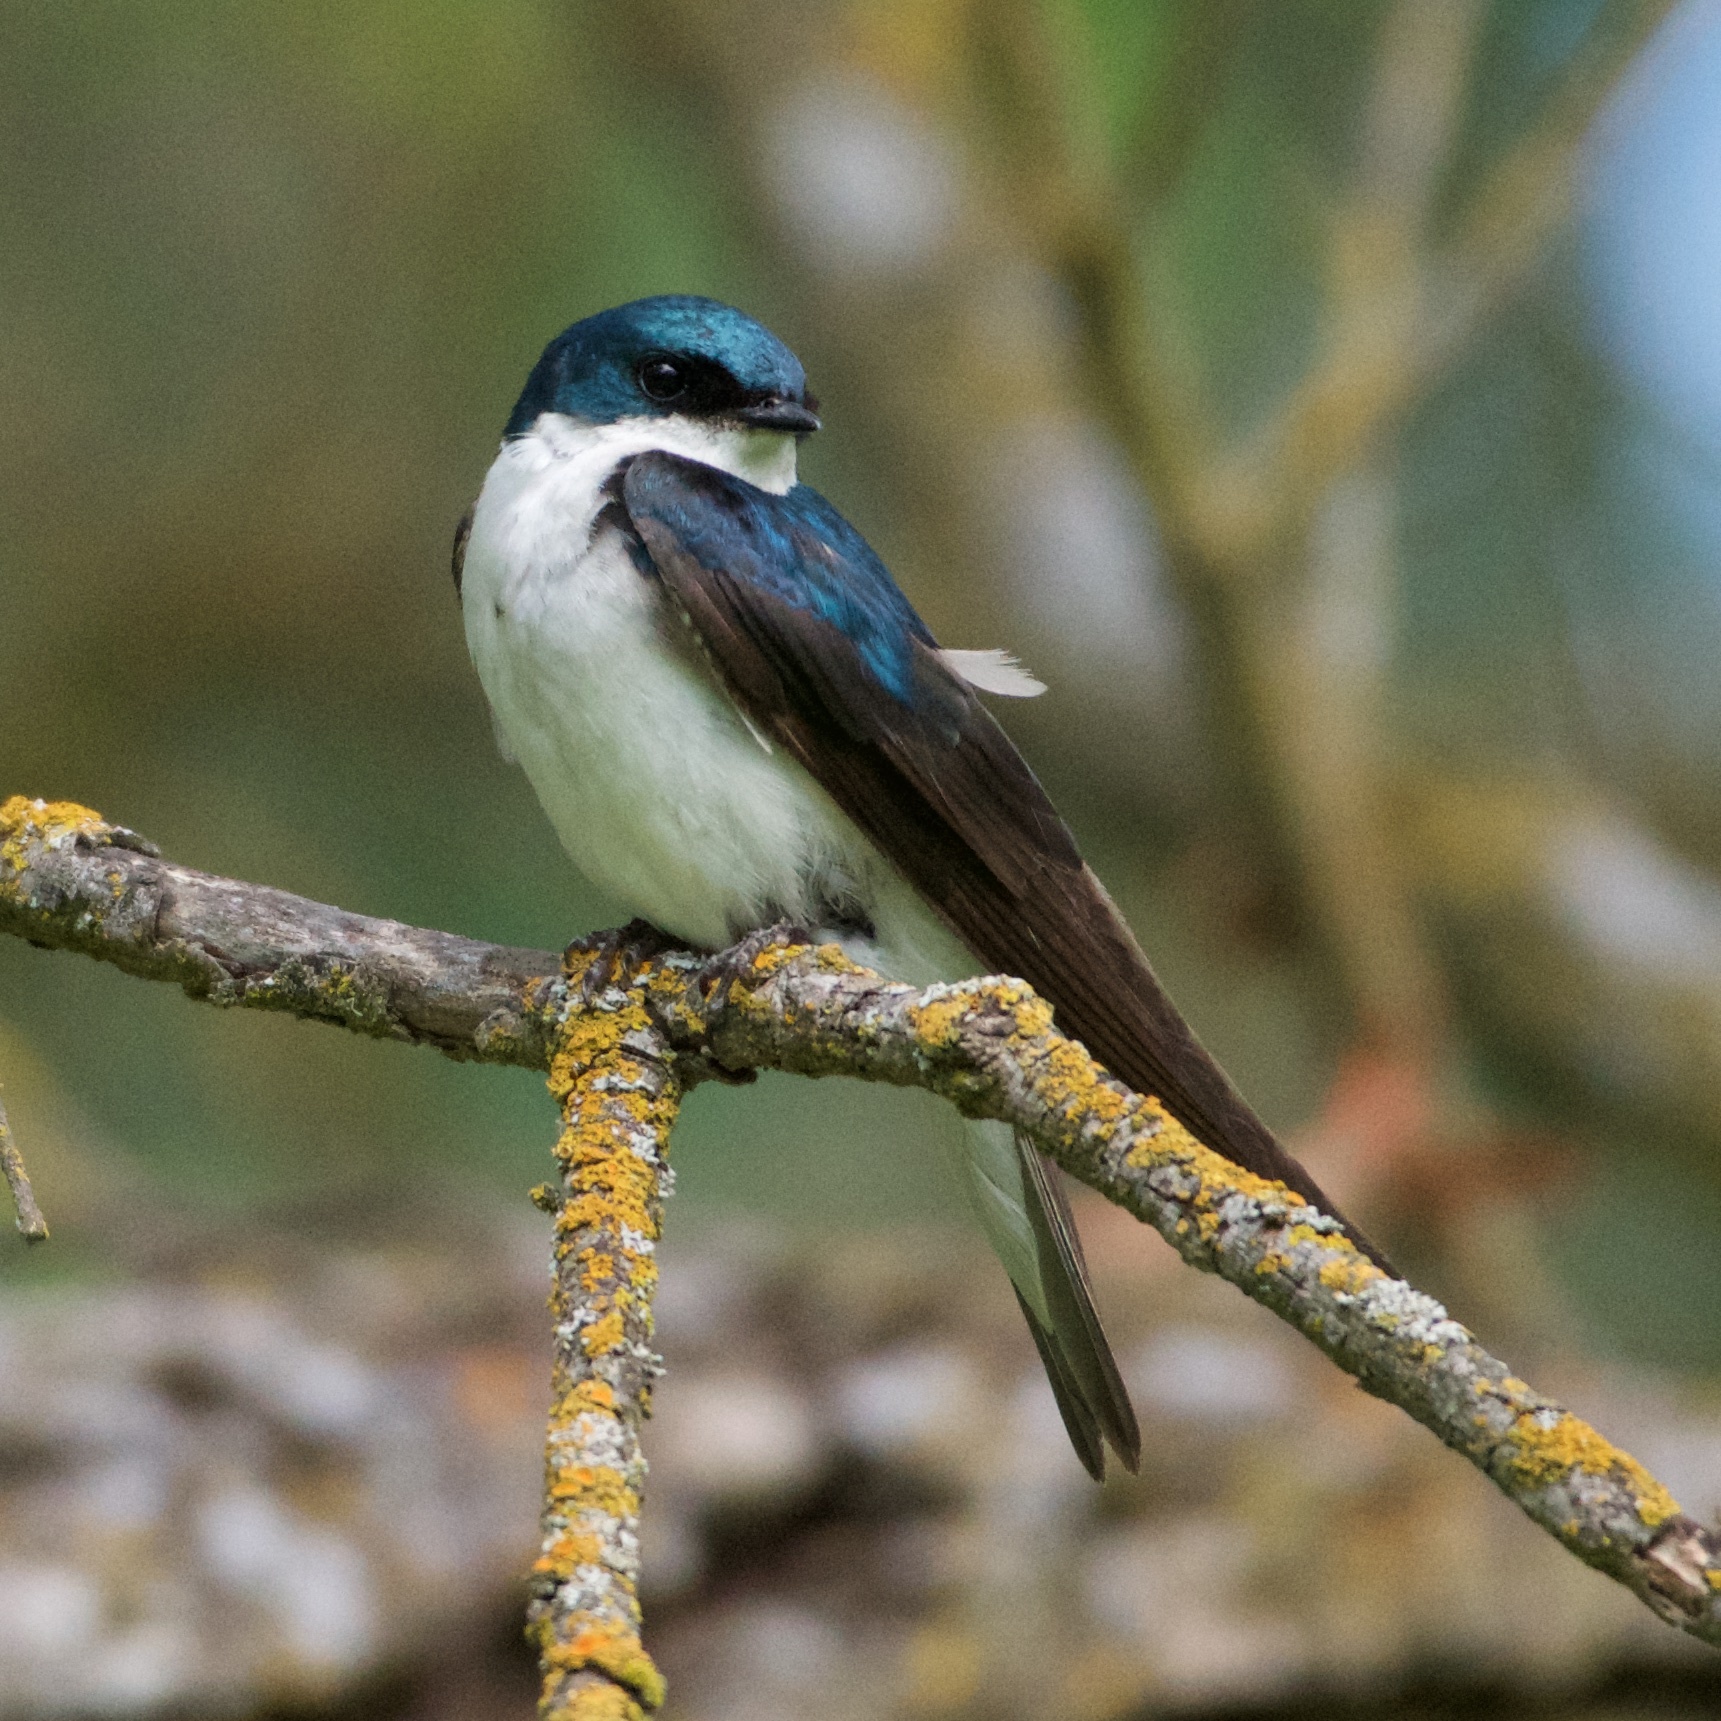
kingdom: Animalia
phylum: Chordata
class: Aves
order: Passeriformes
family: Hirundinidae
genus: Tachycineta
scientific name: Tachycineta bicolor
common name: Tree swallow
